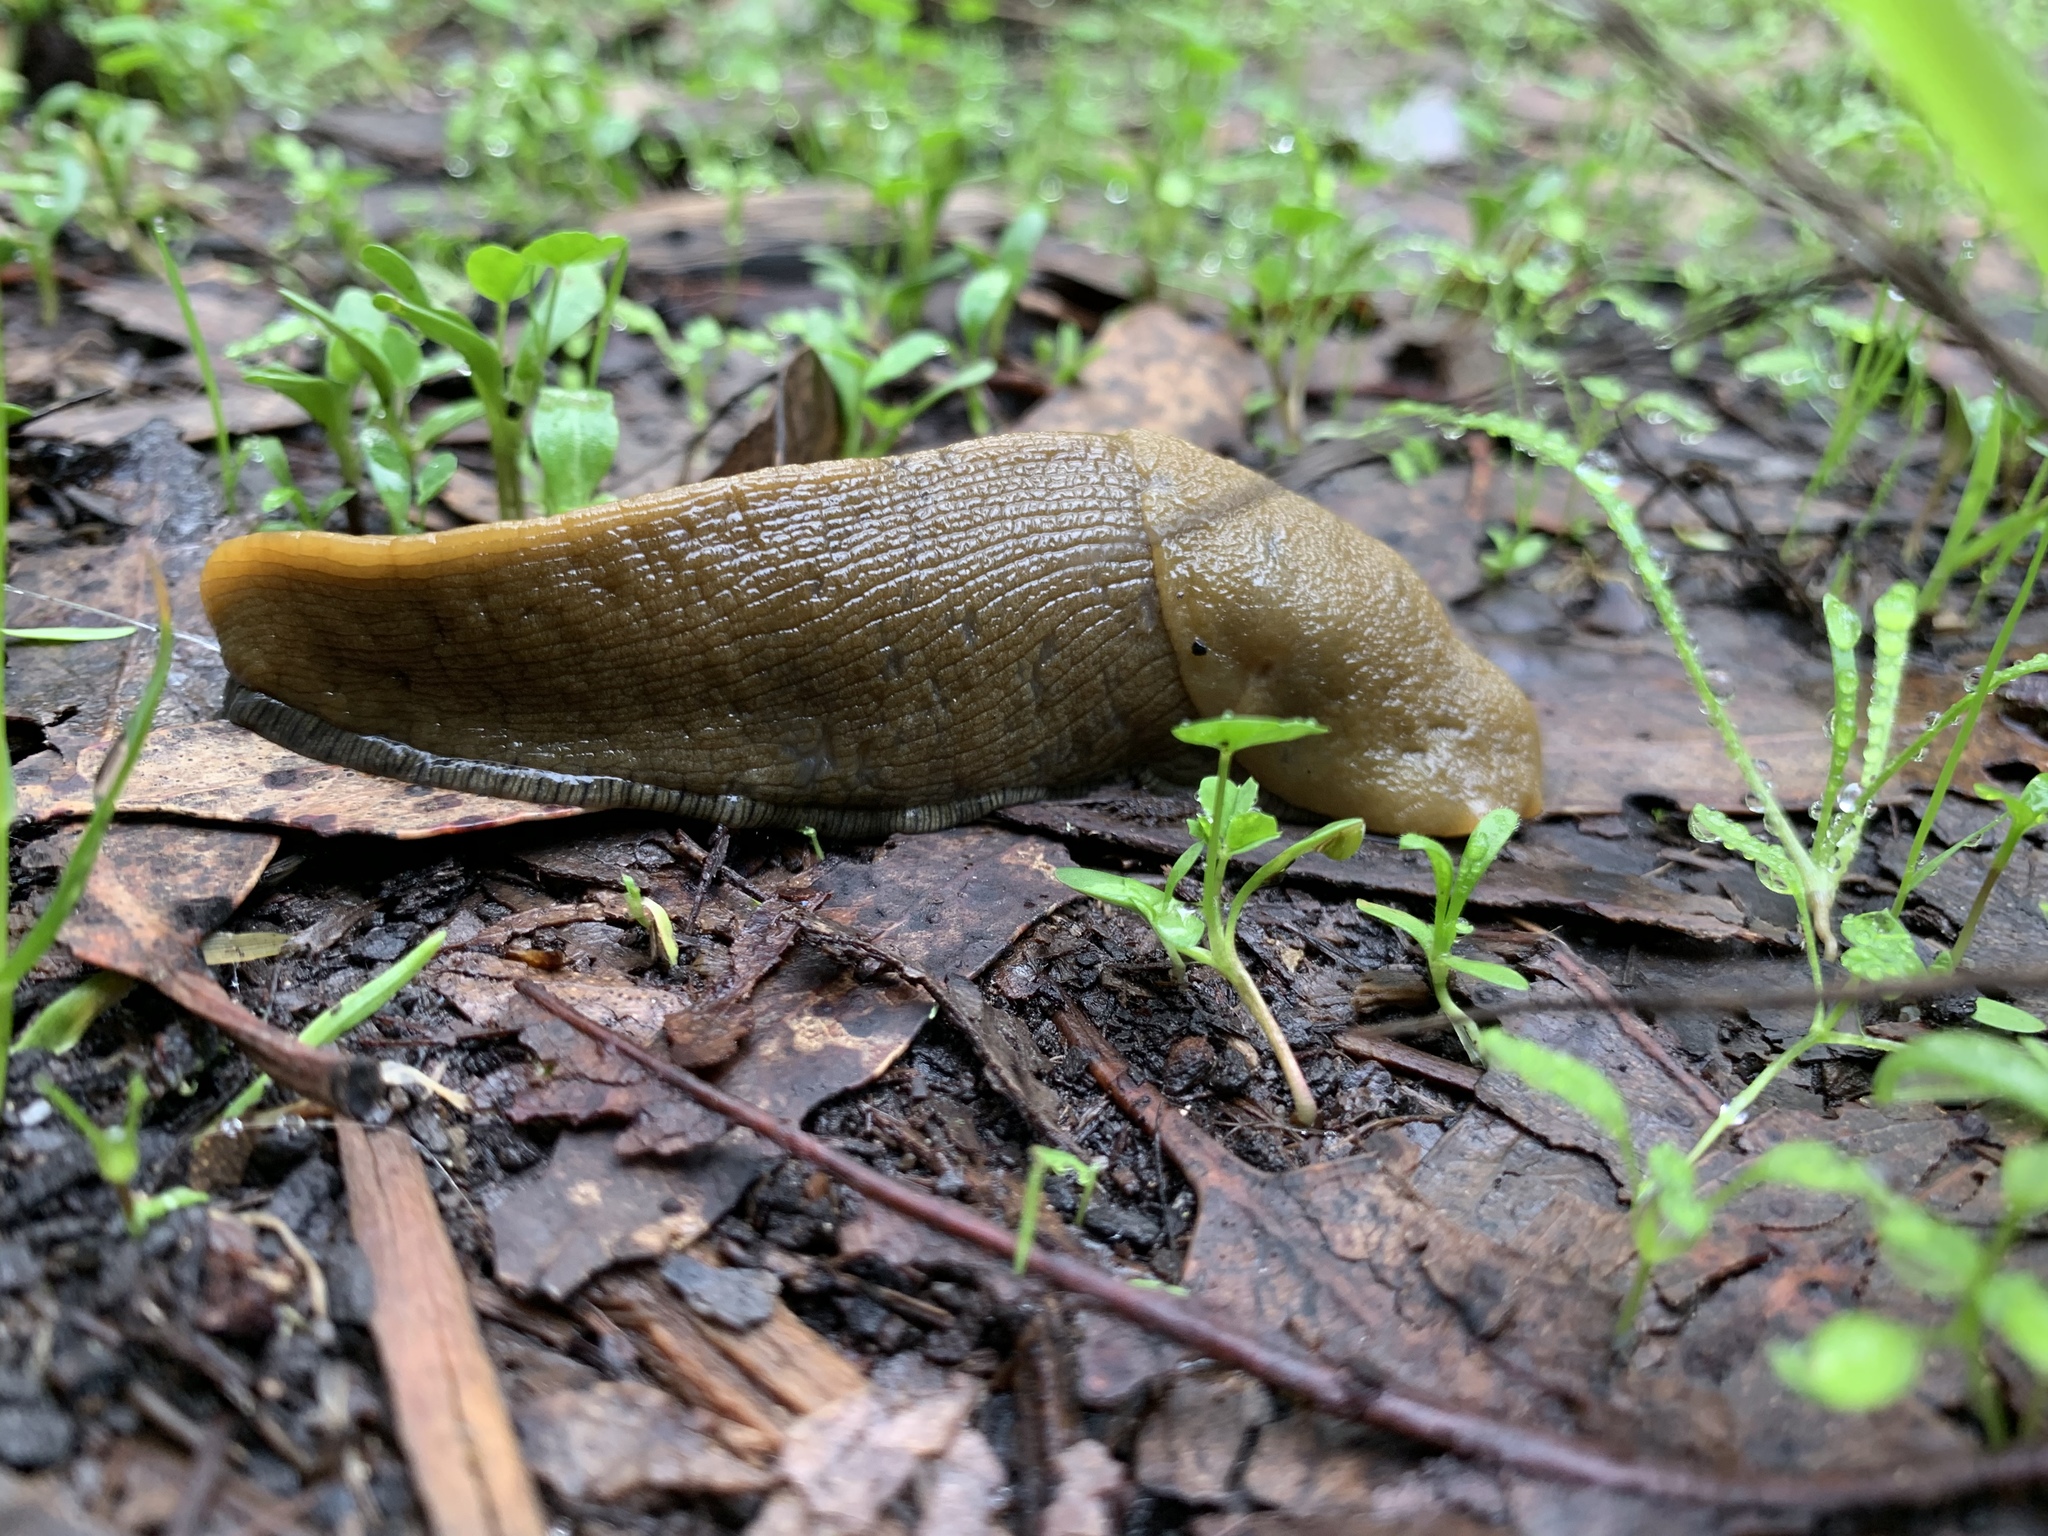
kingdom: Animalia
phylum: Mollusca
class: Gastropoda
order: Stylommatophora
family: Ariolimacidae
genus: Ariolimax
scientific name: Ariolimax buttoni
